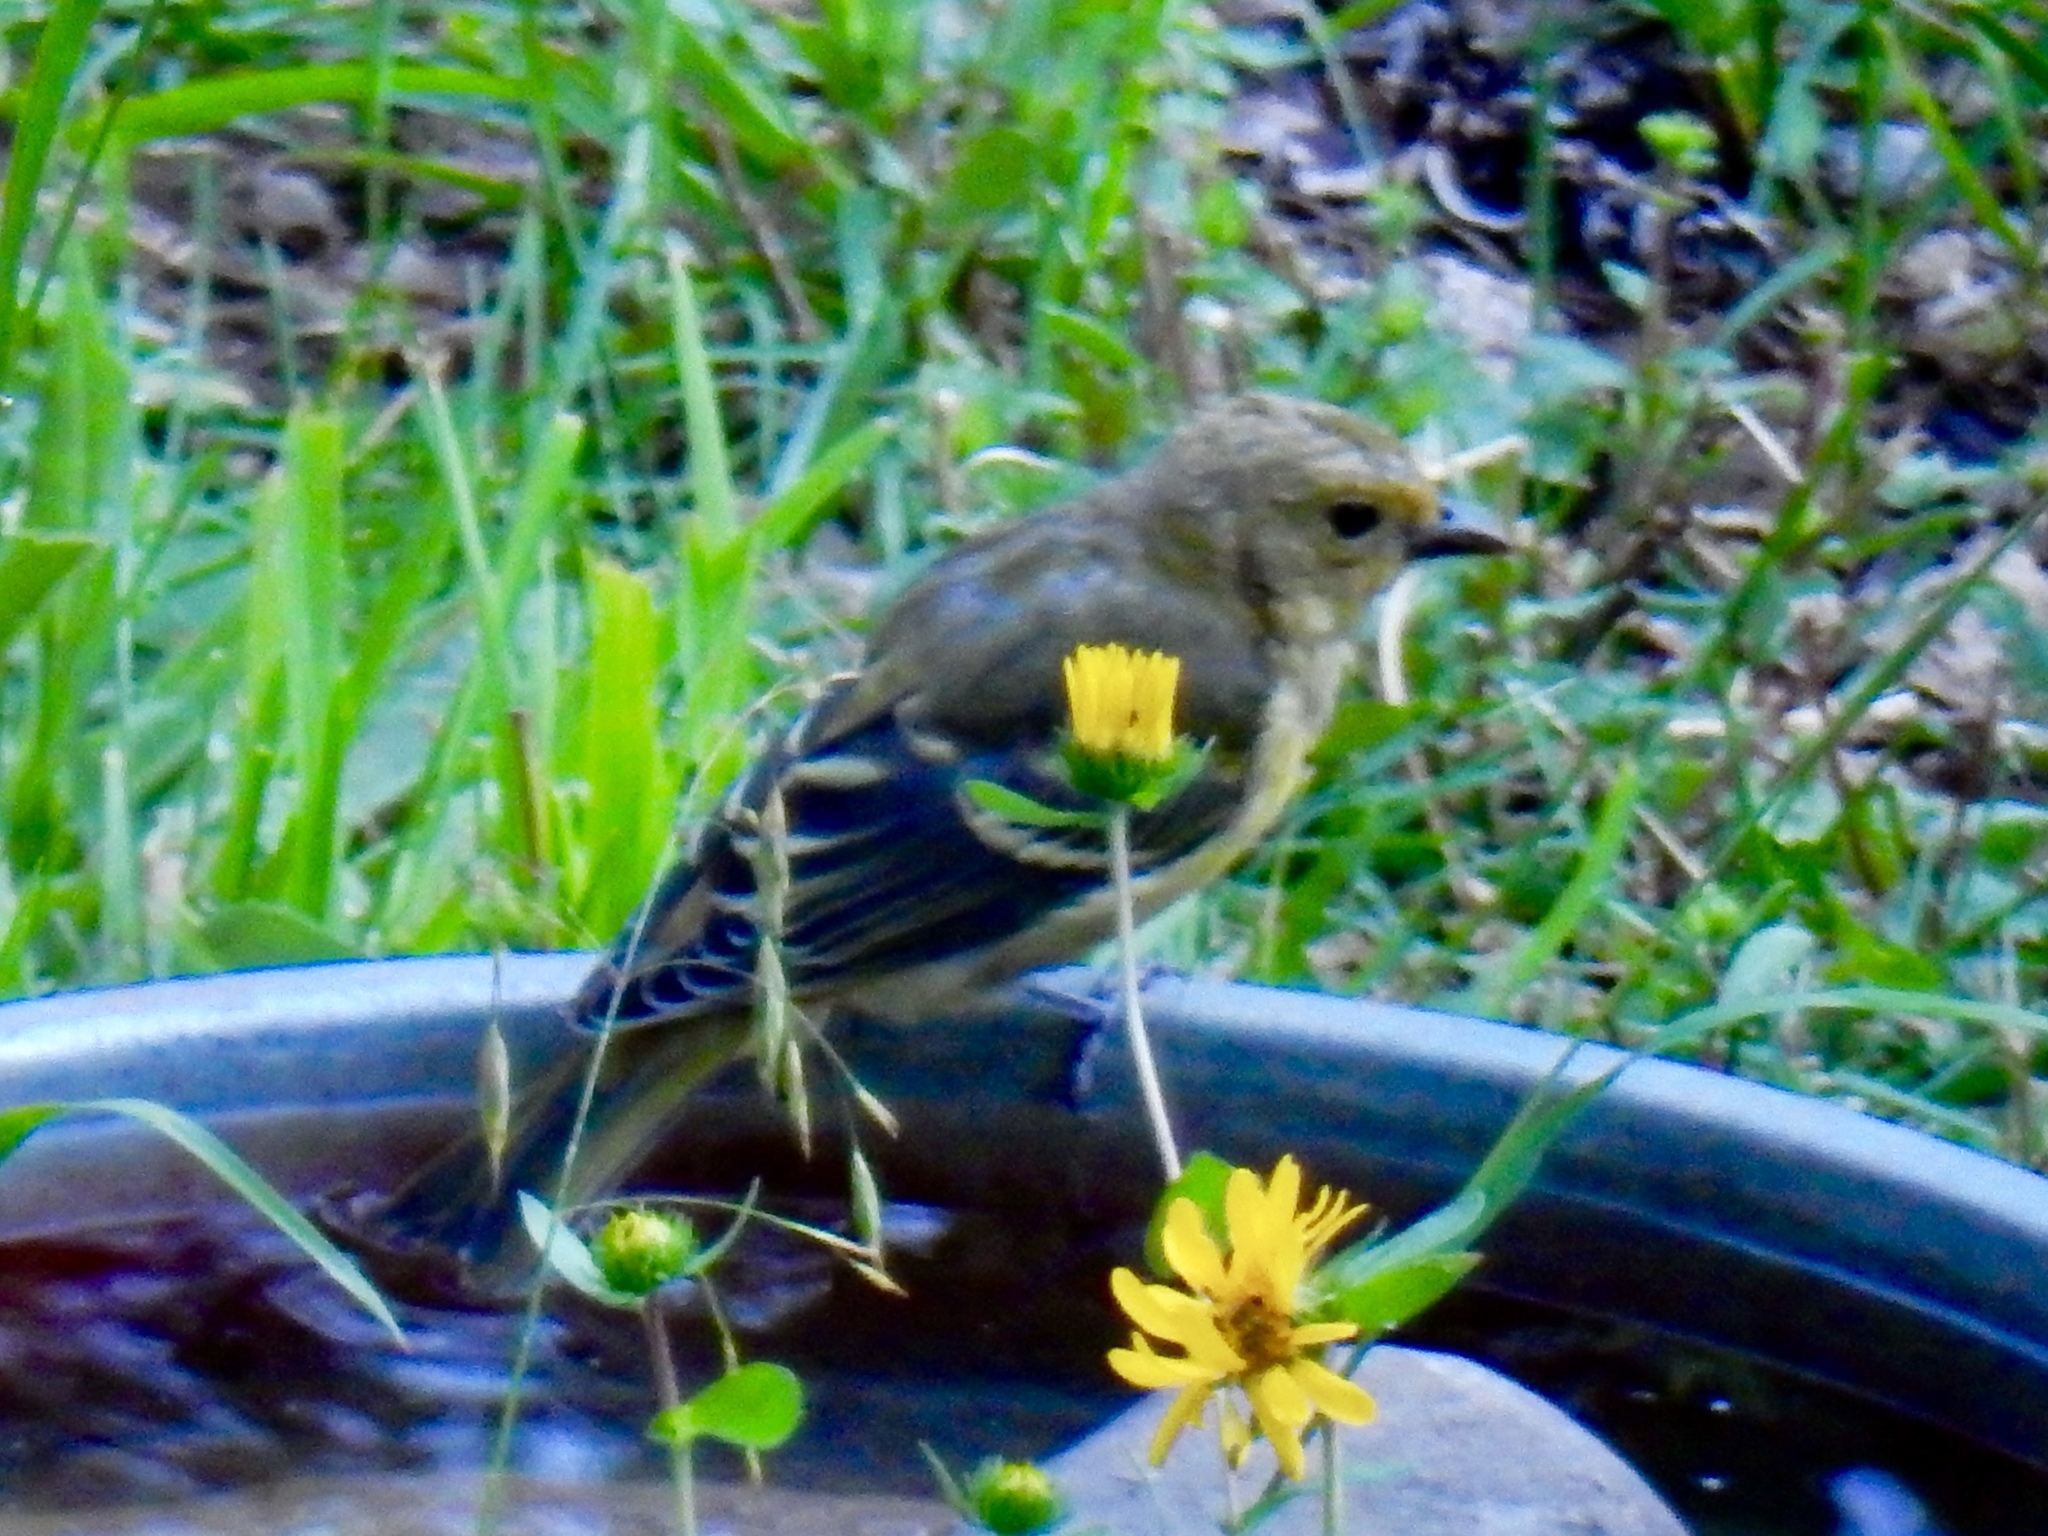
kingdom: Animalia
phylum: Chordata
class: Aves
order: Passeriformes
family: Cardinalidae
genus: Piranga
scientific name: Piranga ludoviciana
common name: Western tanager
